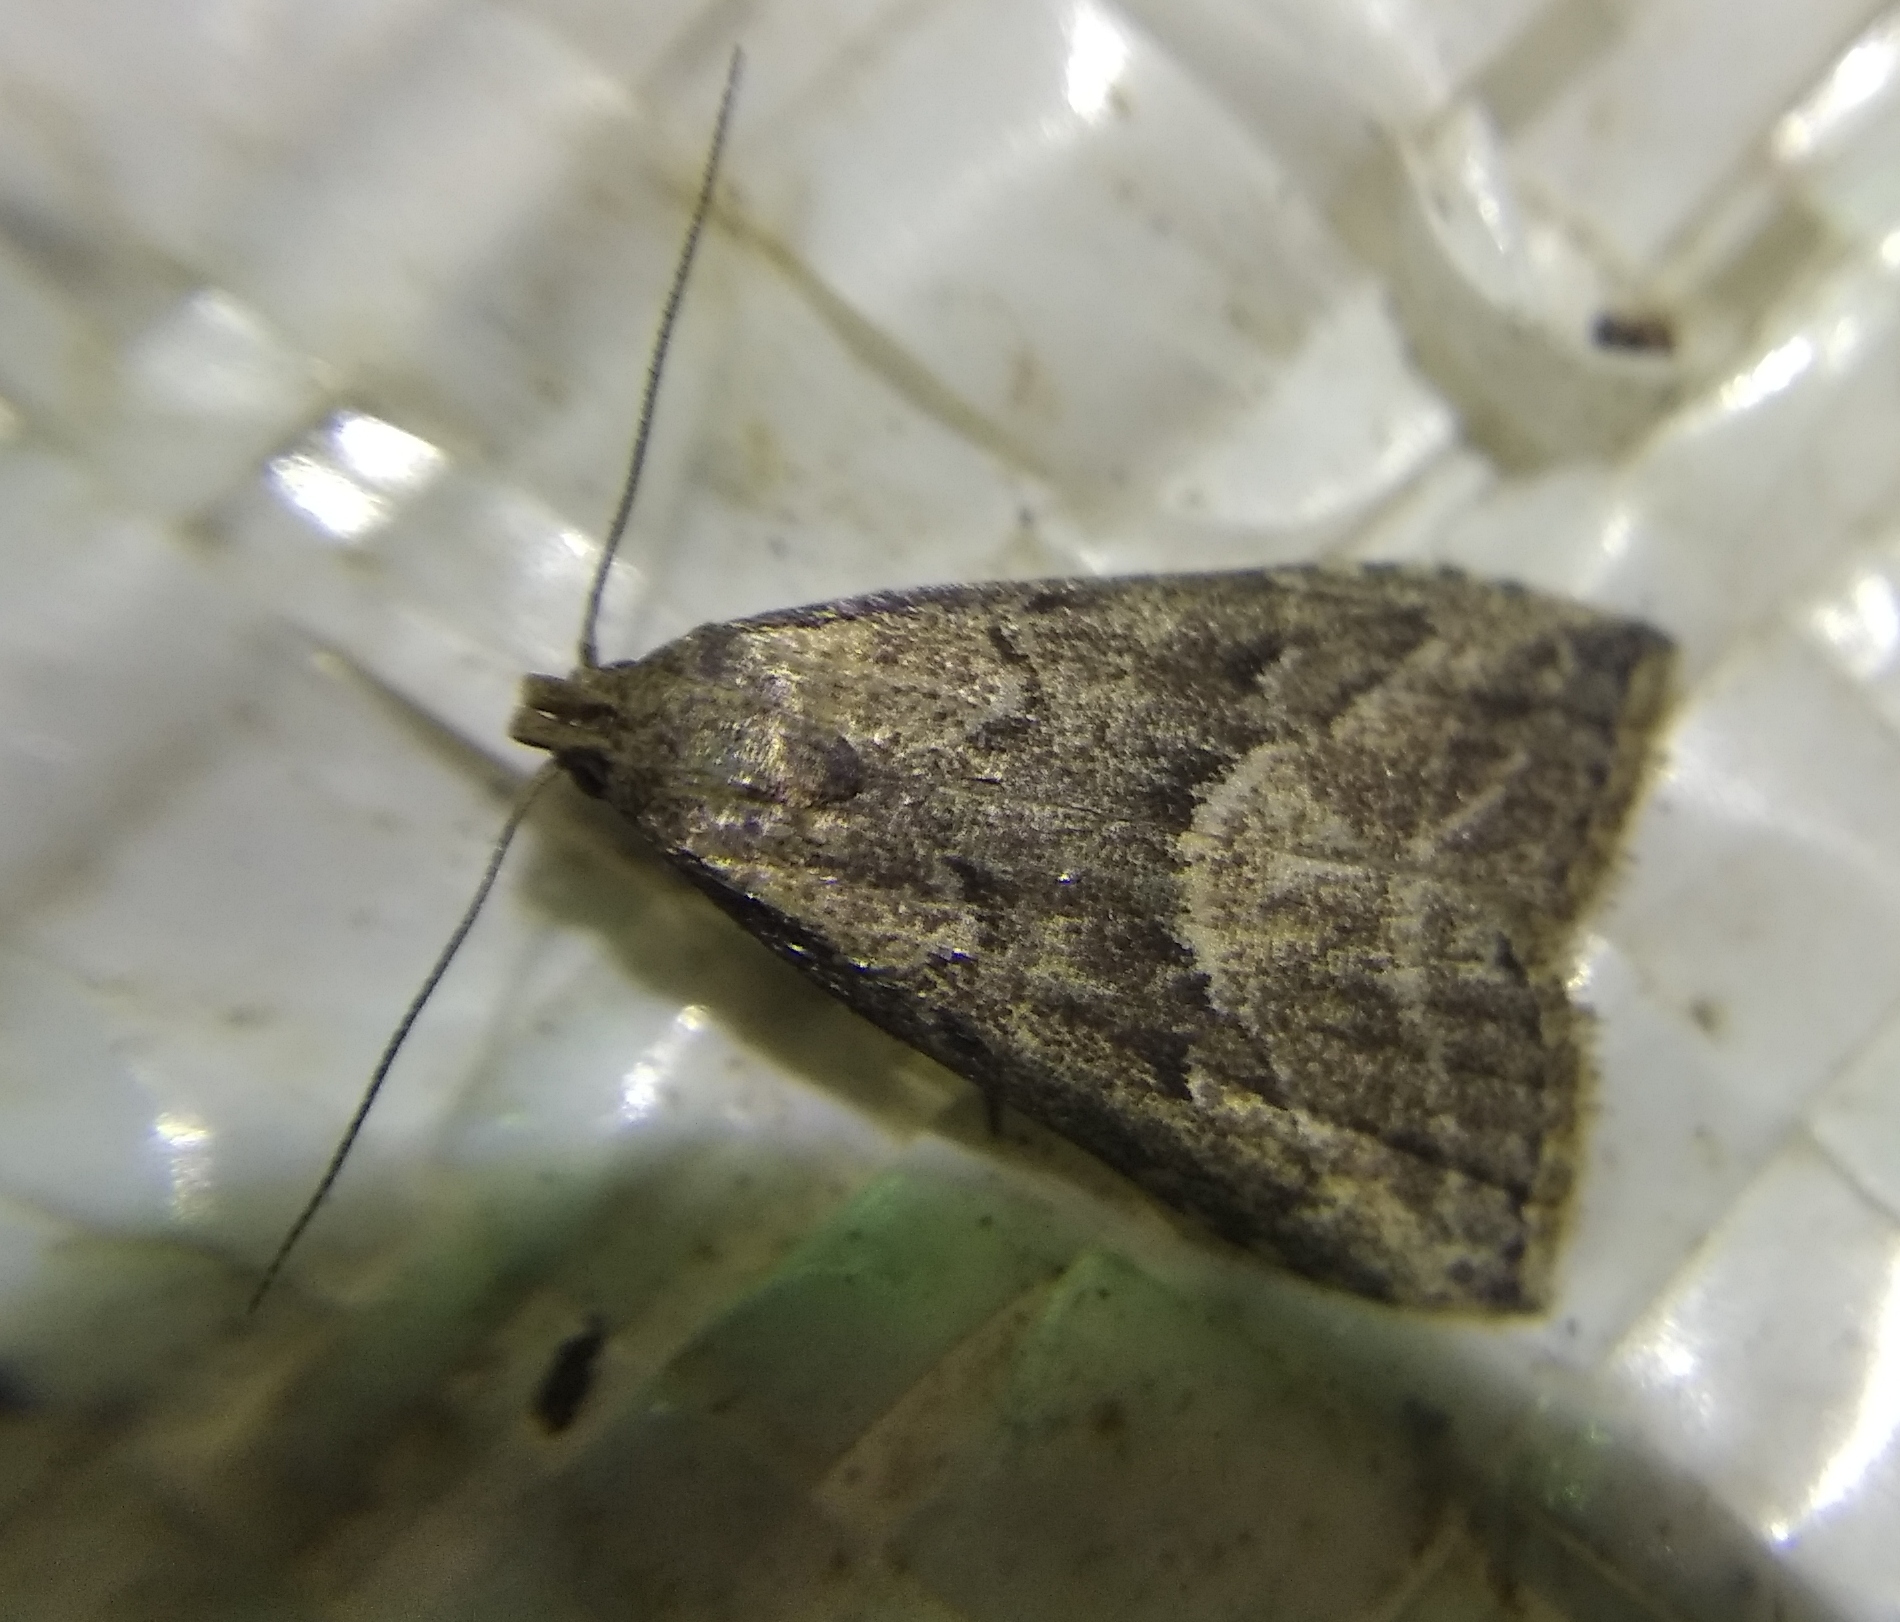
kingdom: Animalia
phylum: Arthropoda
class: Insecta
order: Lepidoptera
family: Erebidae
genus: Hypenodes
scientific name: Hypenodes humidalis
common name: Marsh oblique-barred
